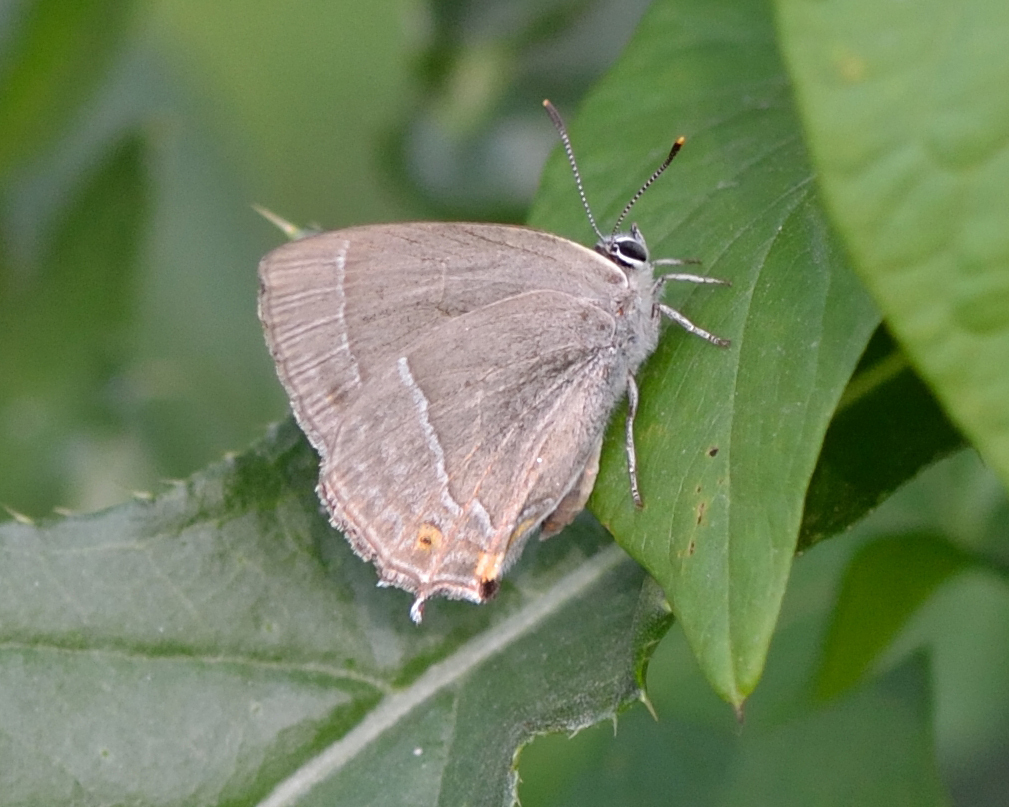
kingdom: Animalia
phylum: Arthropoda
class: Insecta
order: Lepidoptera
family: Lycaenidae
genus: Quercusia
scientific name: Quercusia quercus
